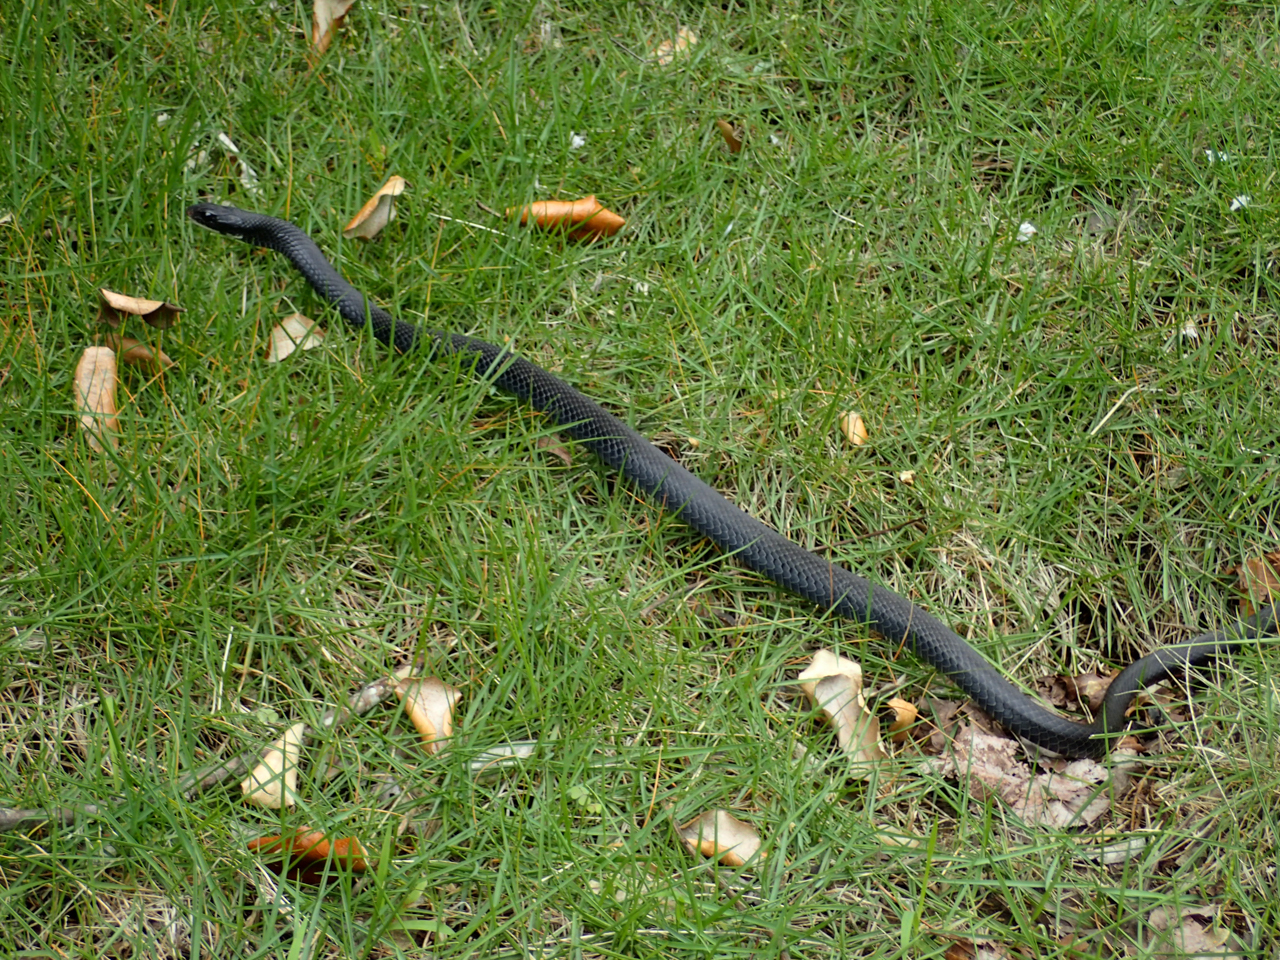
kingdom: Animalia
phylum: Chordata
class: Squamata
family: Colubridae
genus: Coluber
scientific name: Coluber constrictor
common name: Eastern racer
